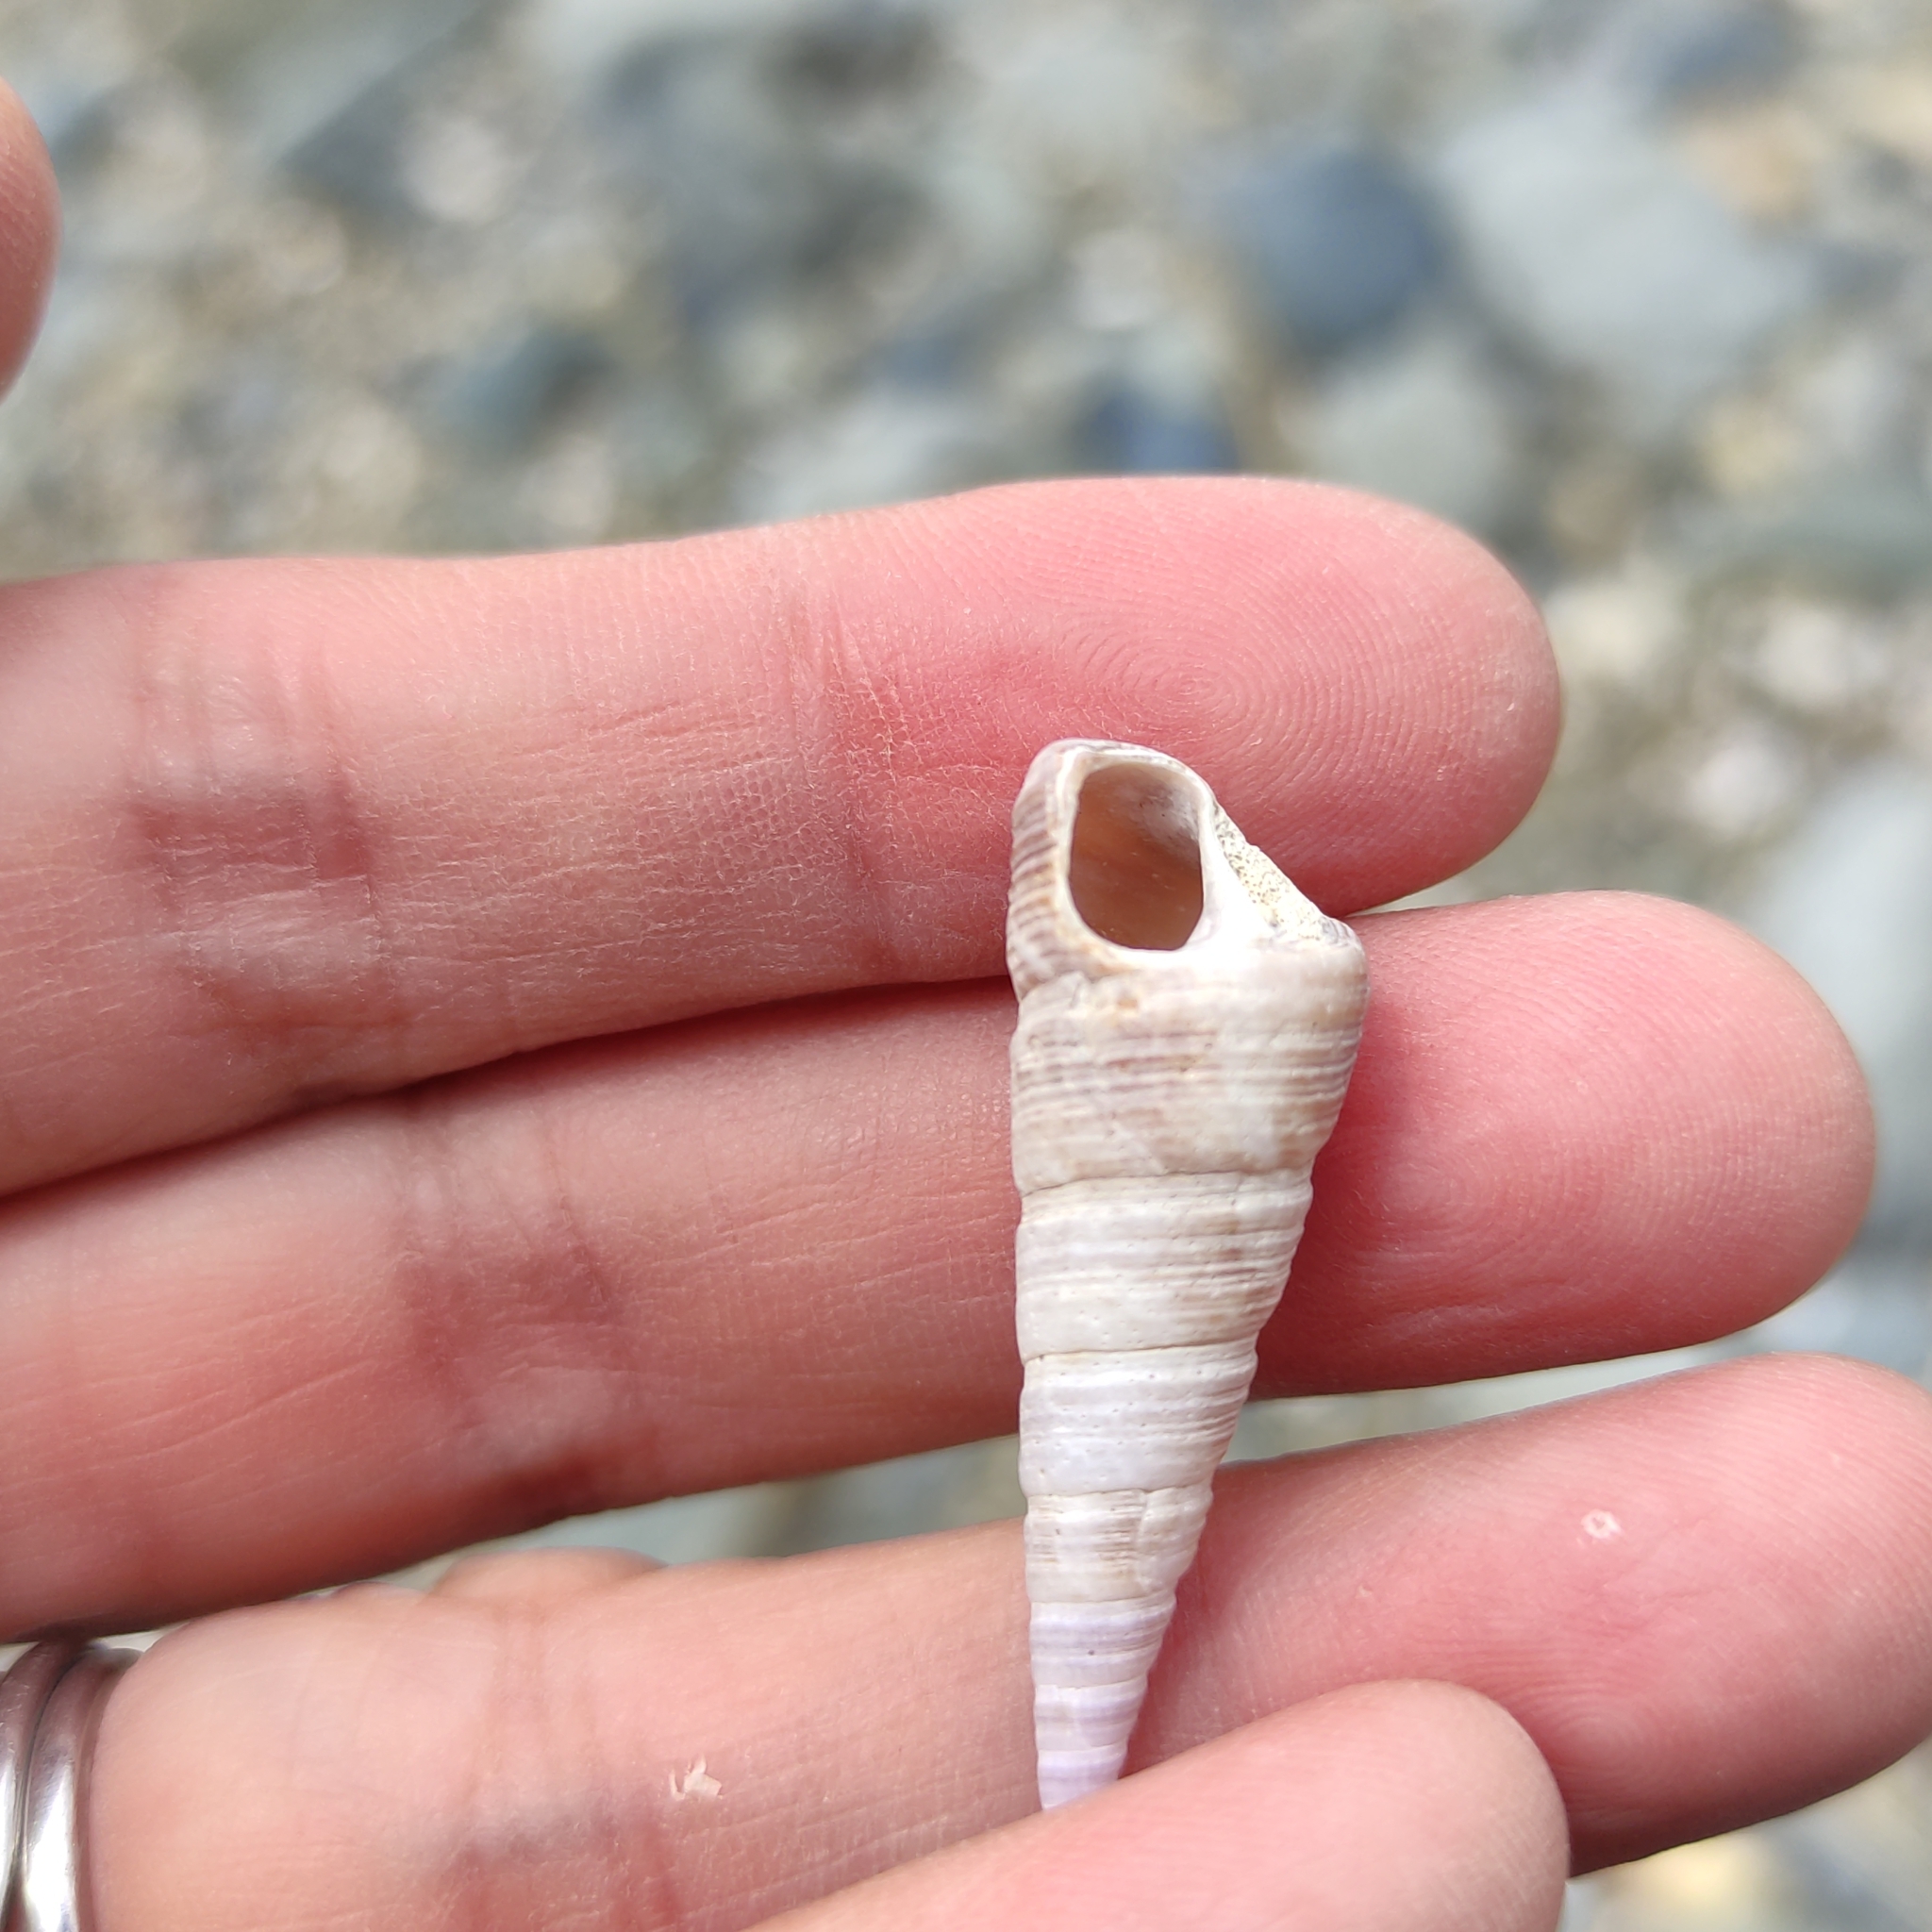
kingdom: Animalia
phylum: Mollusca
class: Gastropoda
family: Turritellidae
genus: Maoricolpus
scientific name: Maoricolpus roseus
